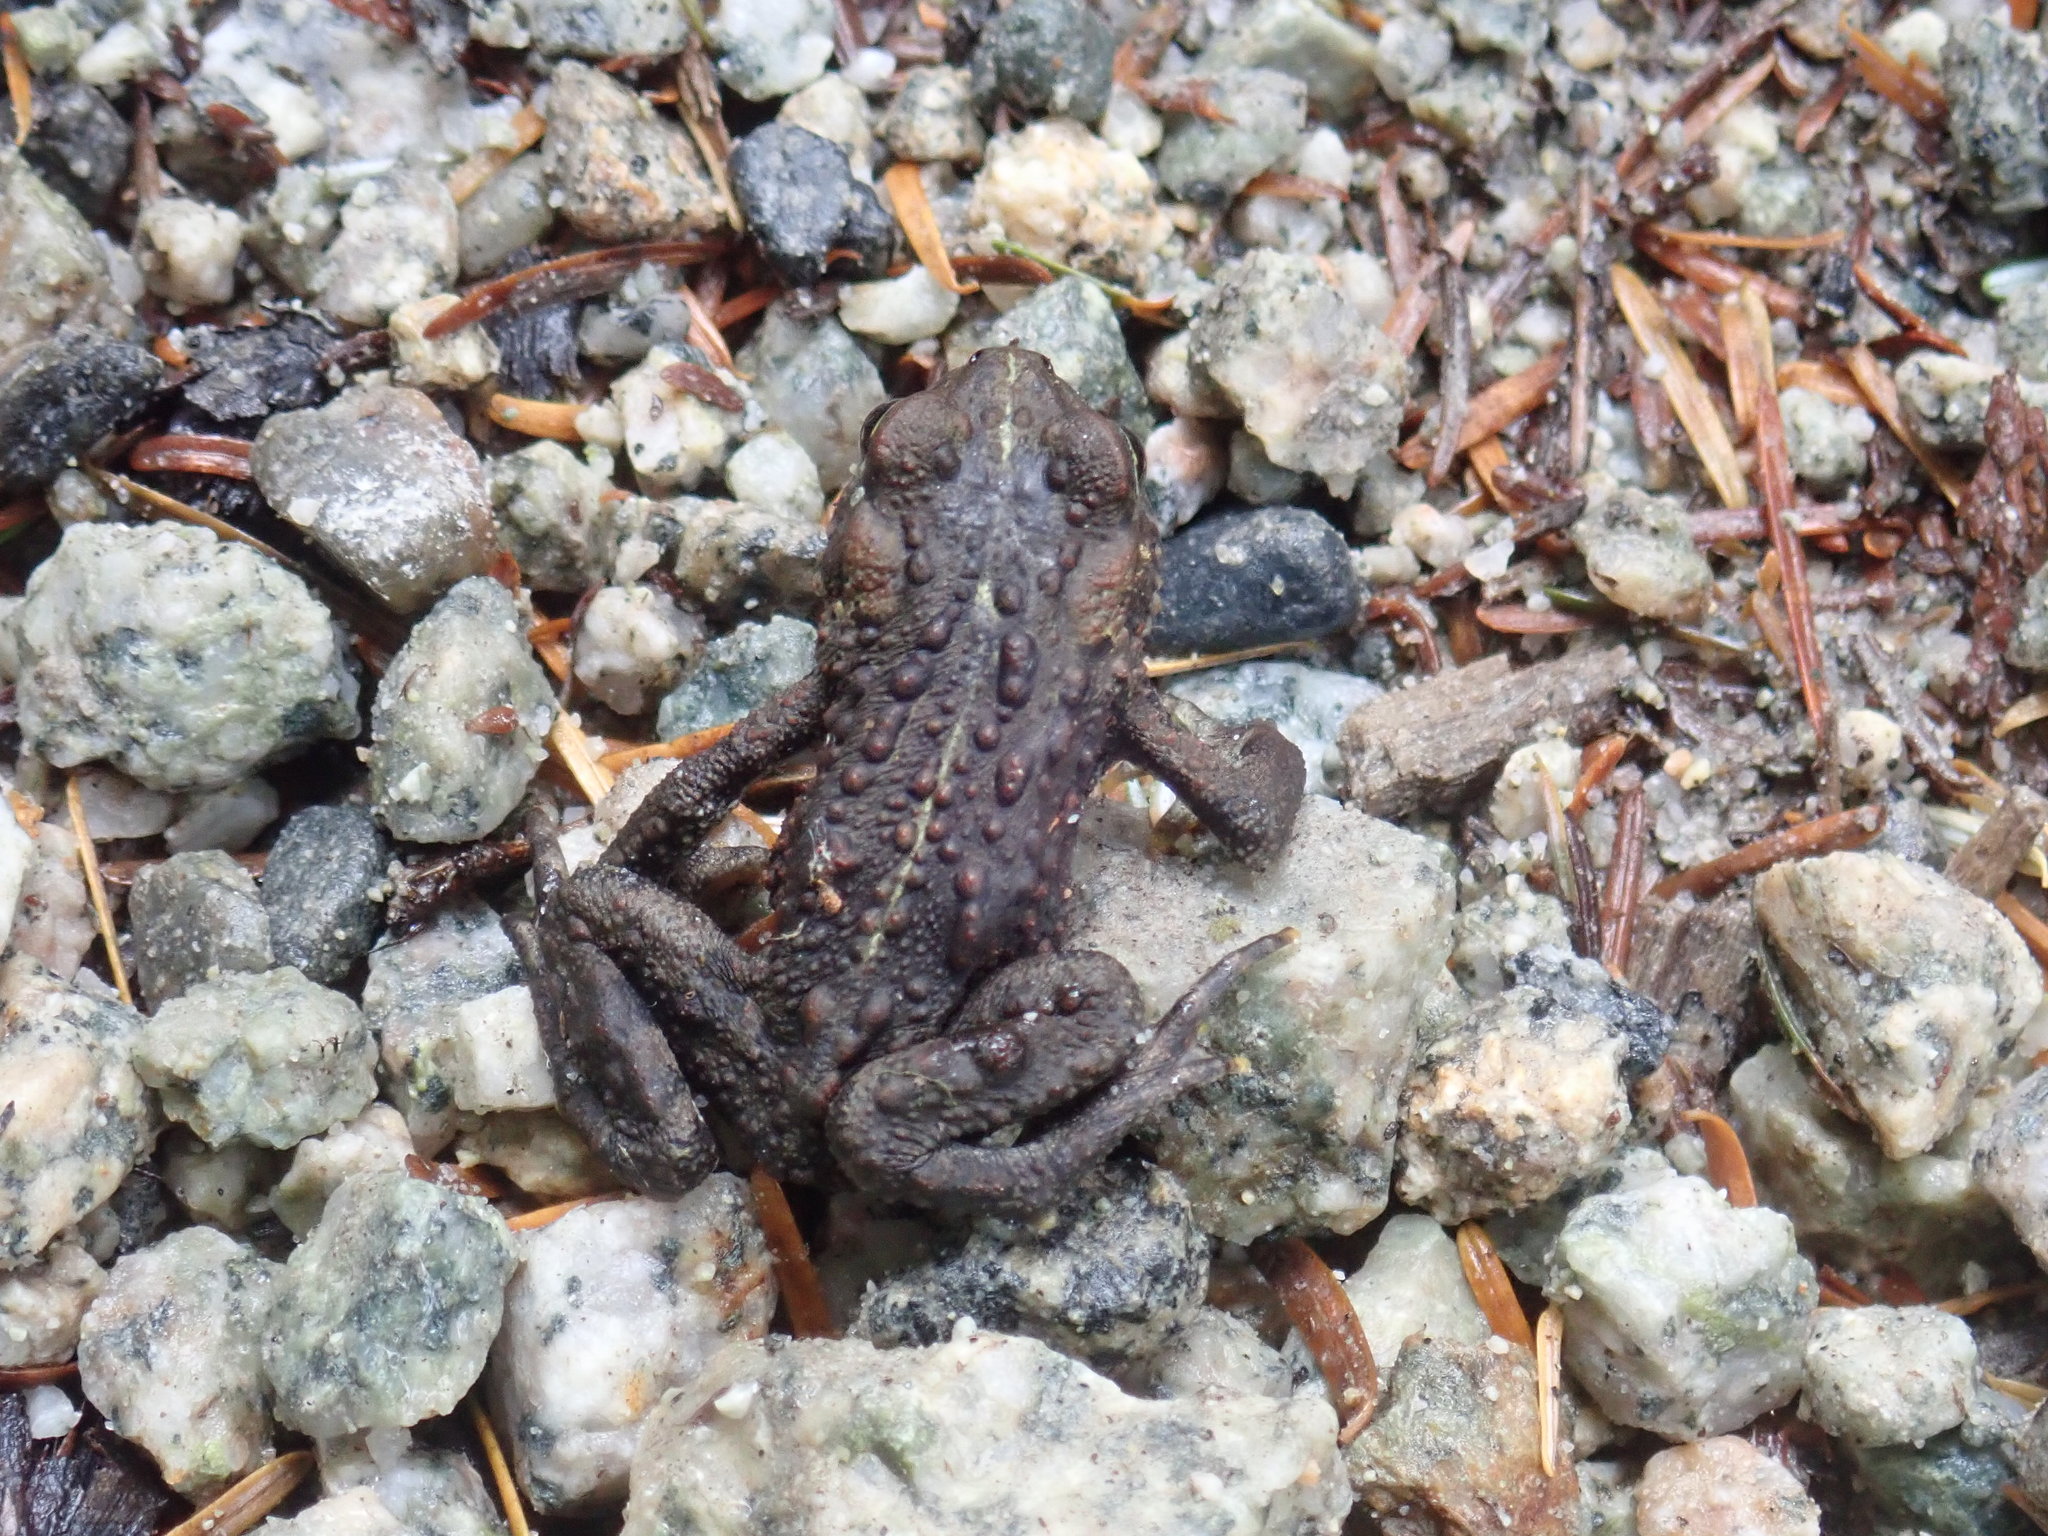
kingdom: Animalia
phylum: Chordata
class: Amphibia
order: Anura
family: Bufonidae
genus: Anaxyrus
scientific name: Anaxyrus boreas
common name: Western toad
